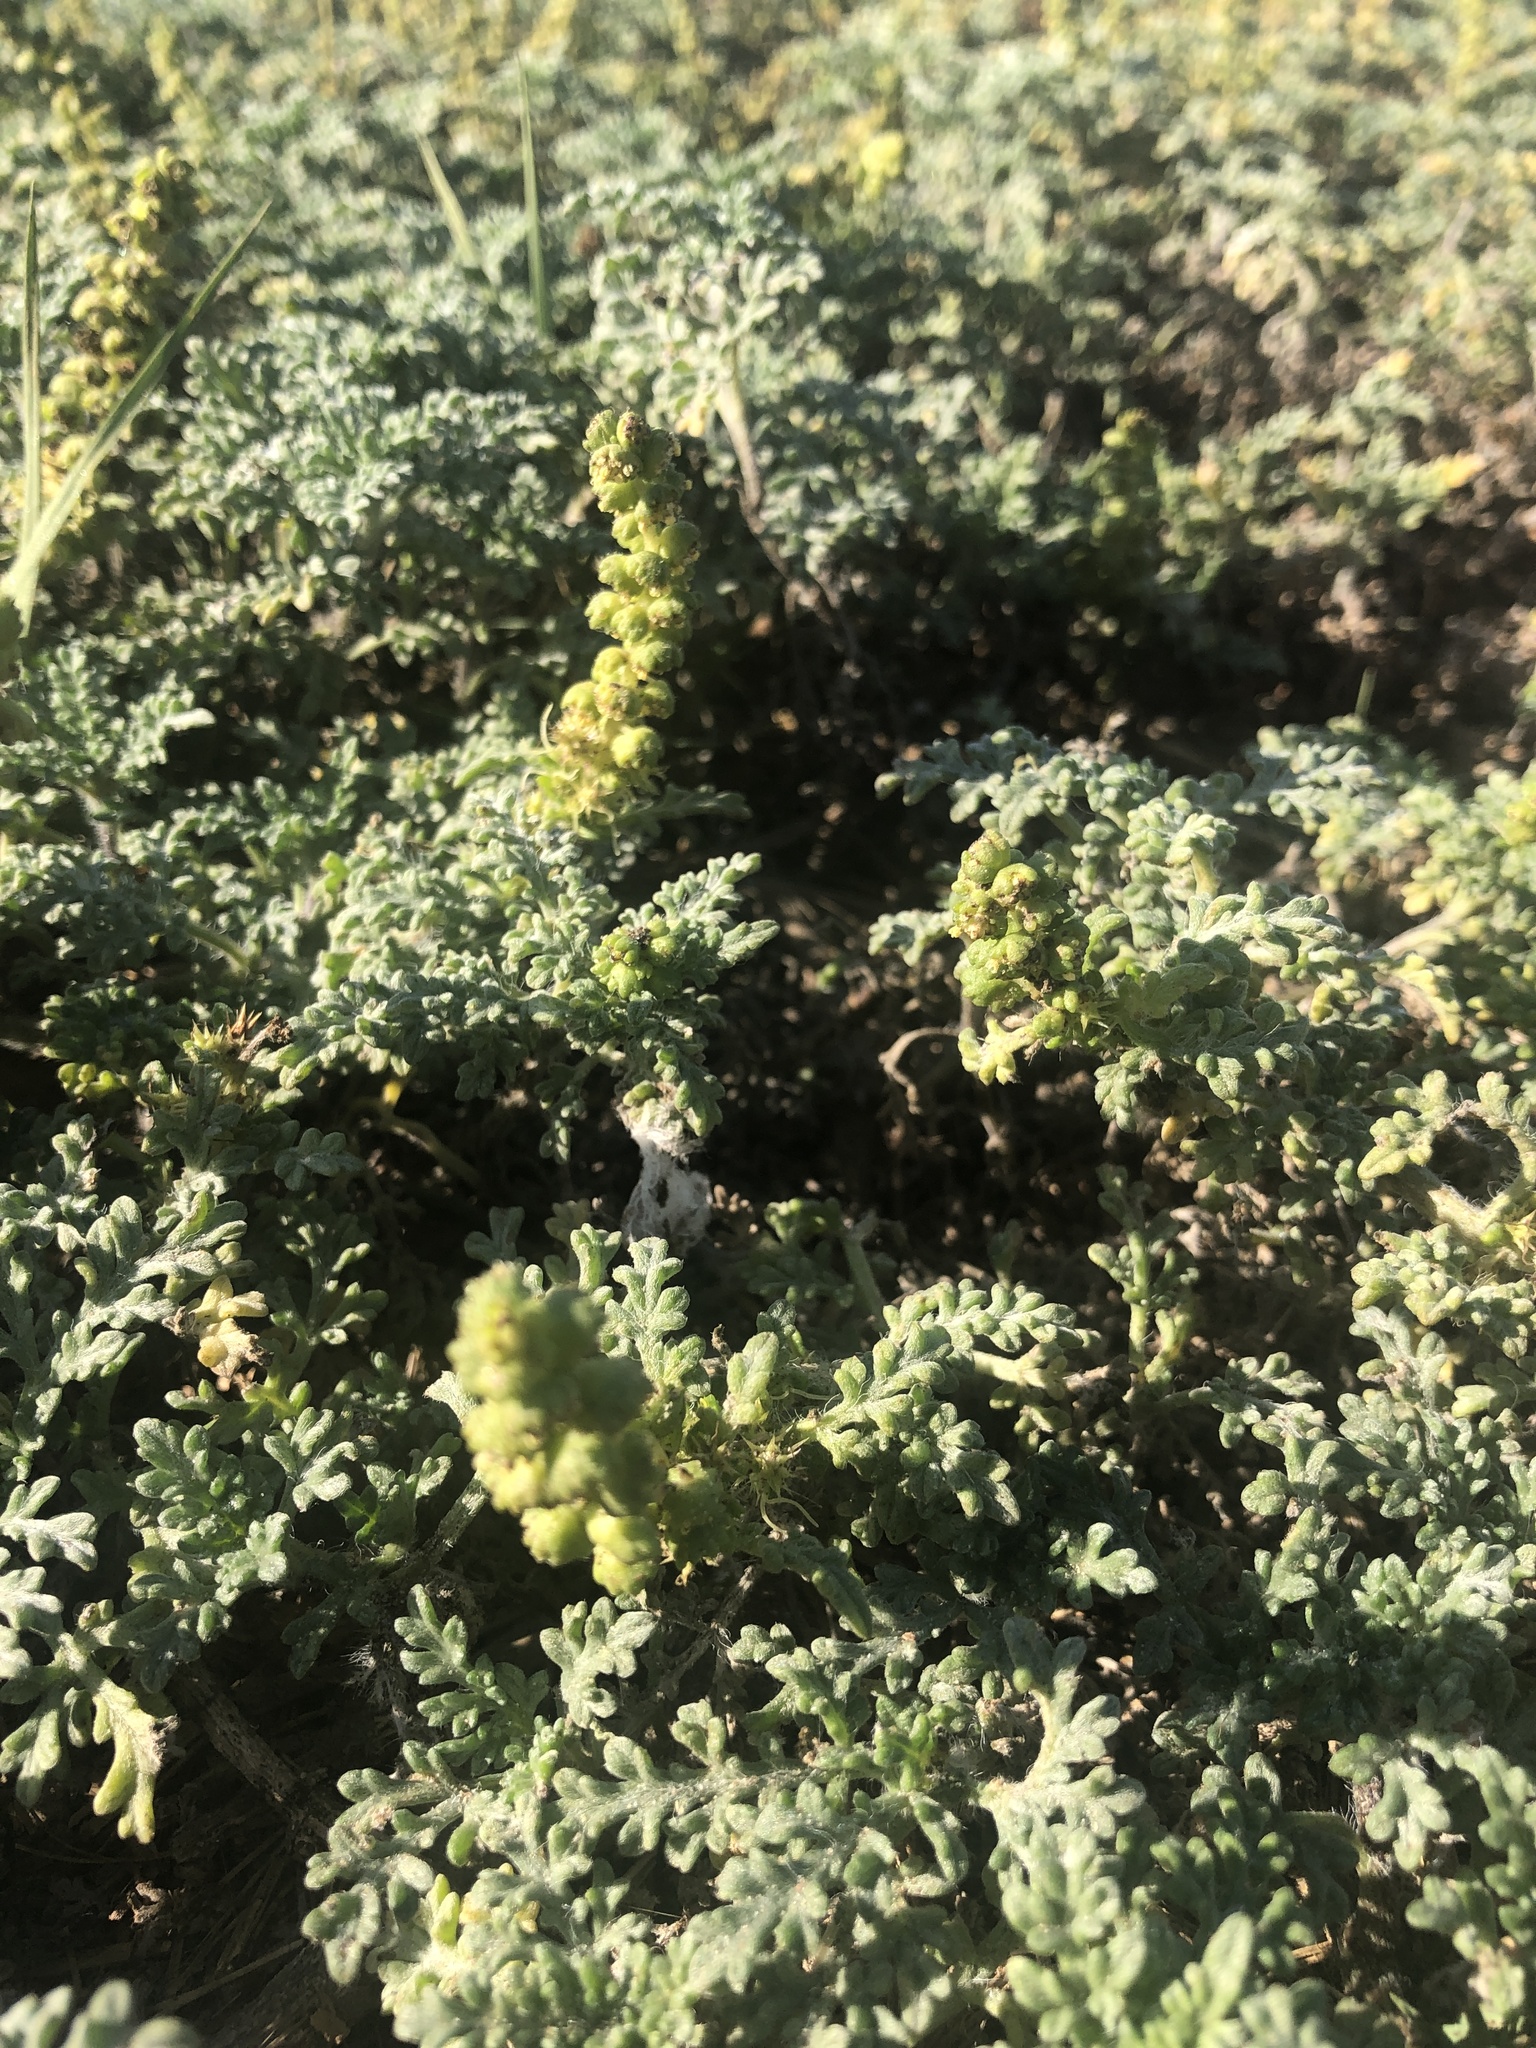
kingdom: Plantae
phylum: Tracheophyta
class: Magnoliopsida
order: Asterales
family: Asteraceae
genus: Ambrosia
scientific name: Ambrosia chamissonis
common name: Beachbur
